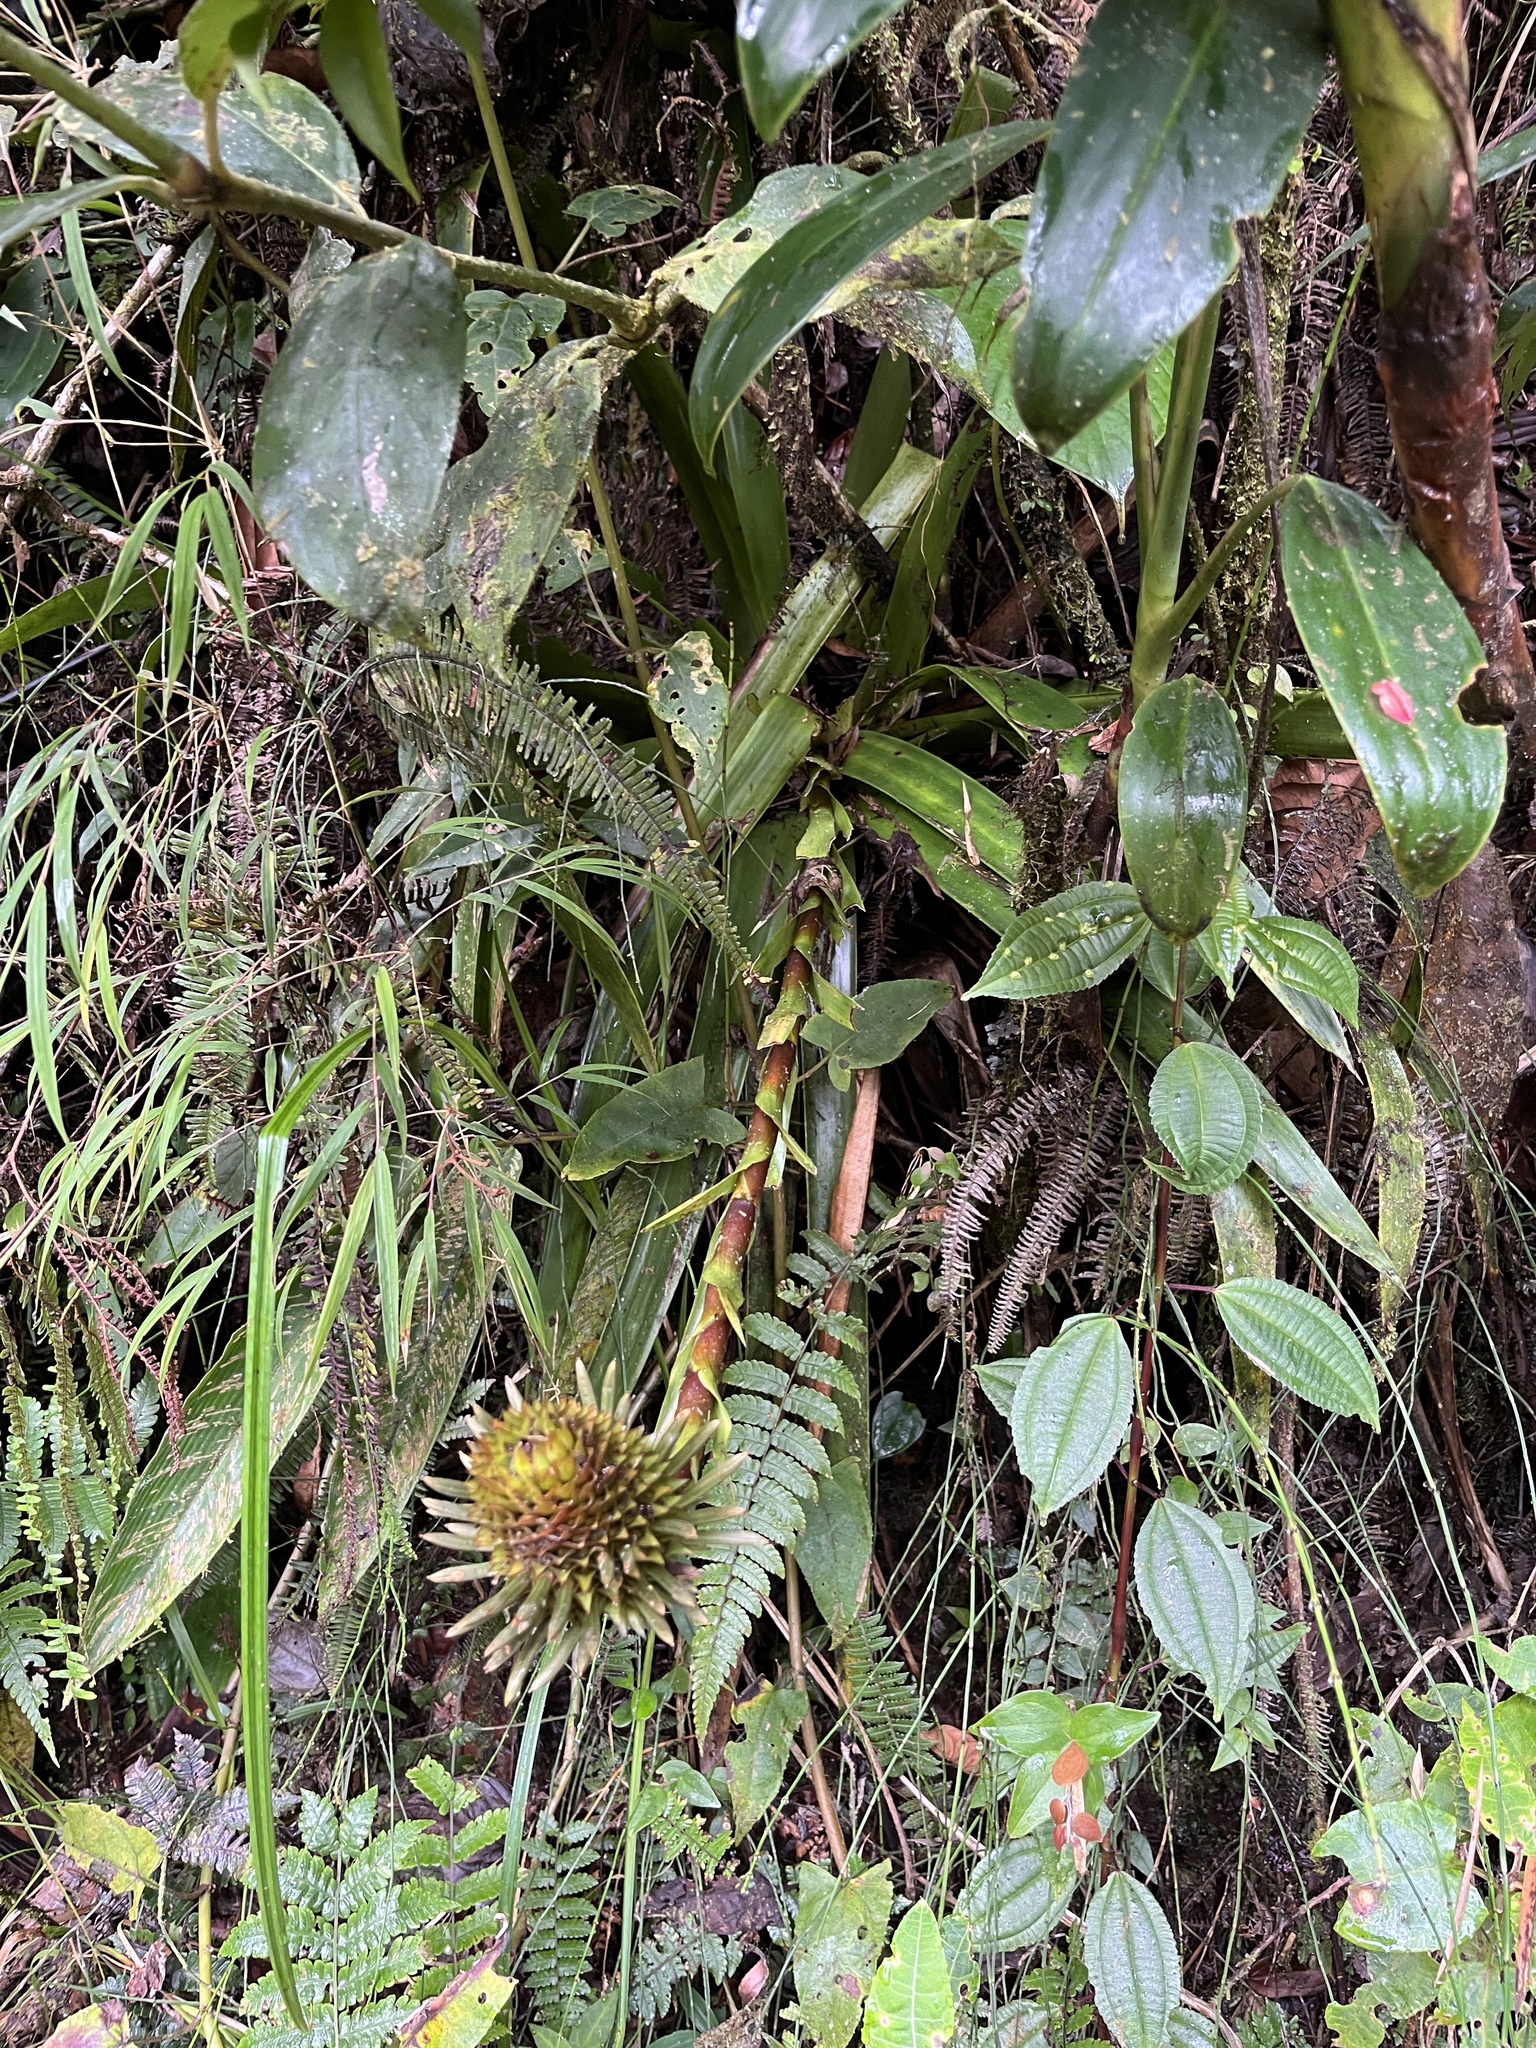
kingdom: Plantae
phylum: Tracheophyta
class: Liliopsida
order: Poales
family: Bromeliaceae
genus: Guzmania
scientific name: Guzmania triangularis
